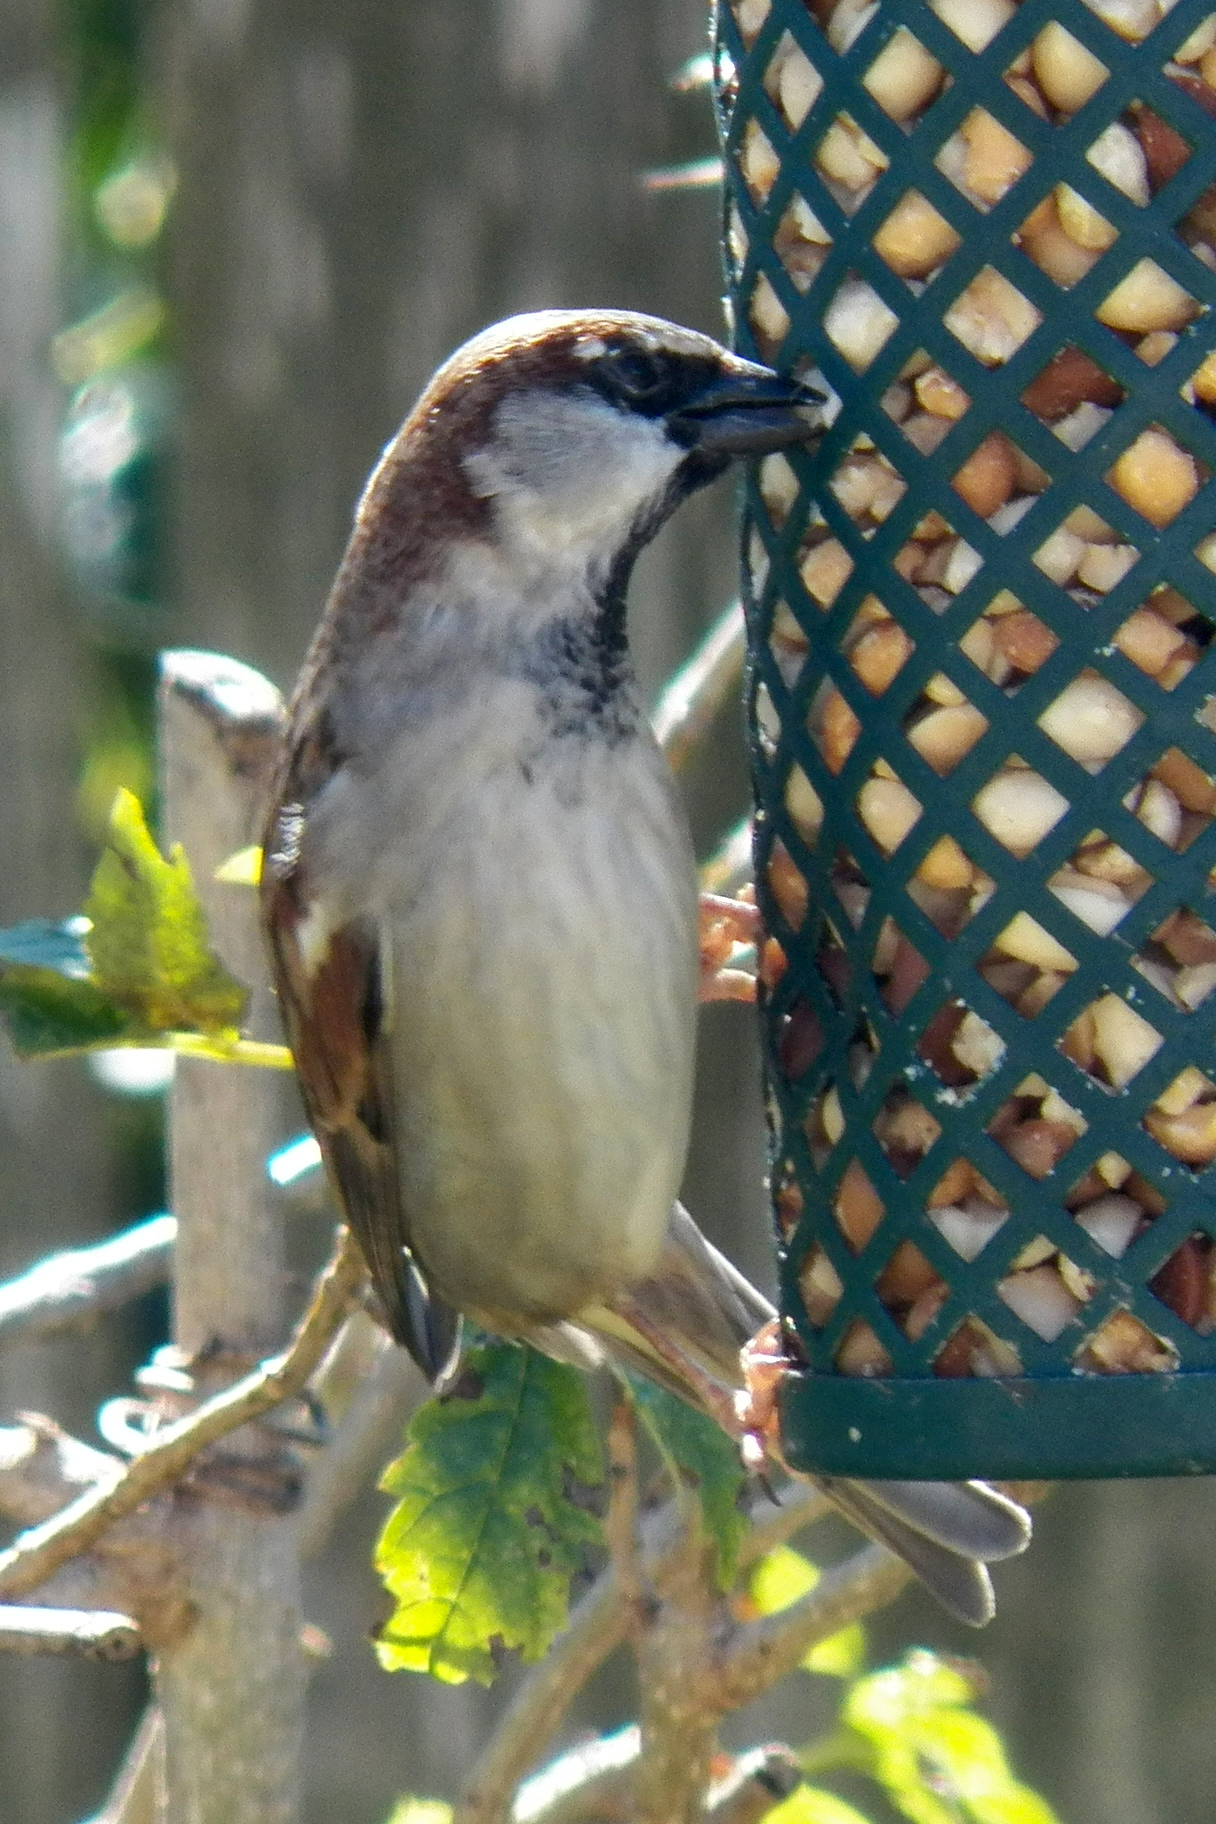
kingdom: Animalia
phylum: Chordata
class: Aves
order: Passeriformes
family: Passeridae
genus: Passer
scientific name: Passer domesticus
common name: House sparrow
